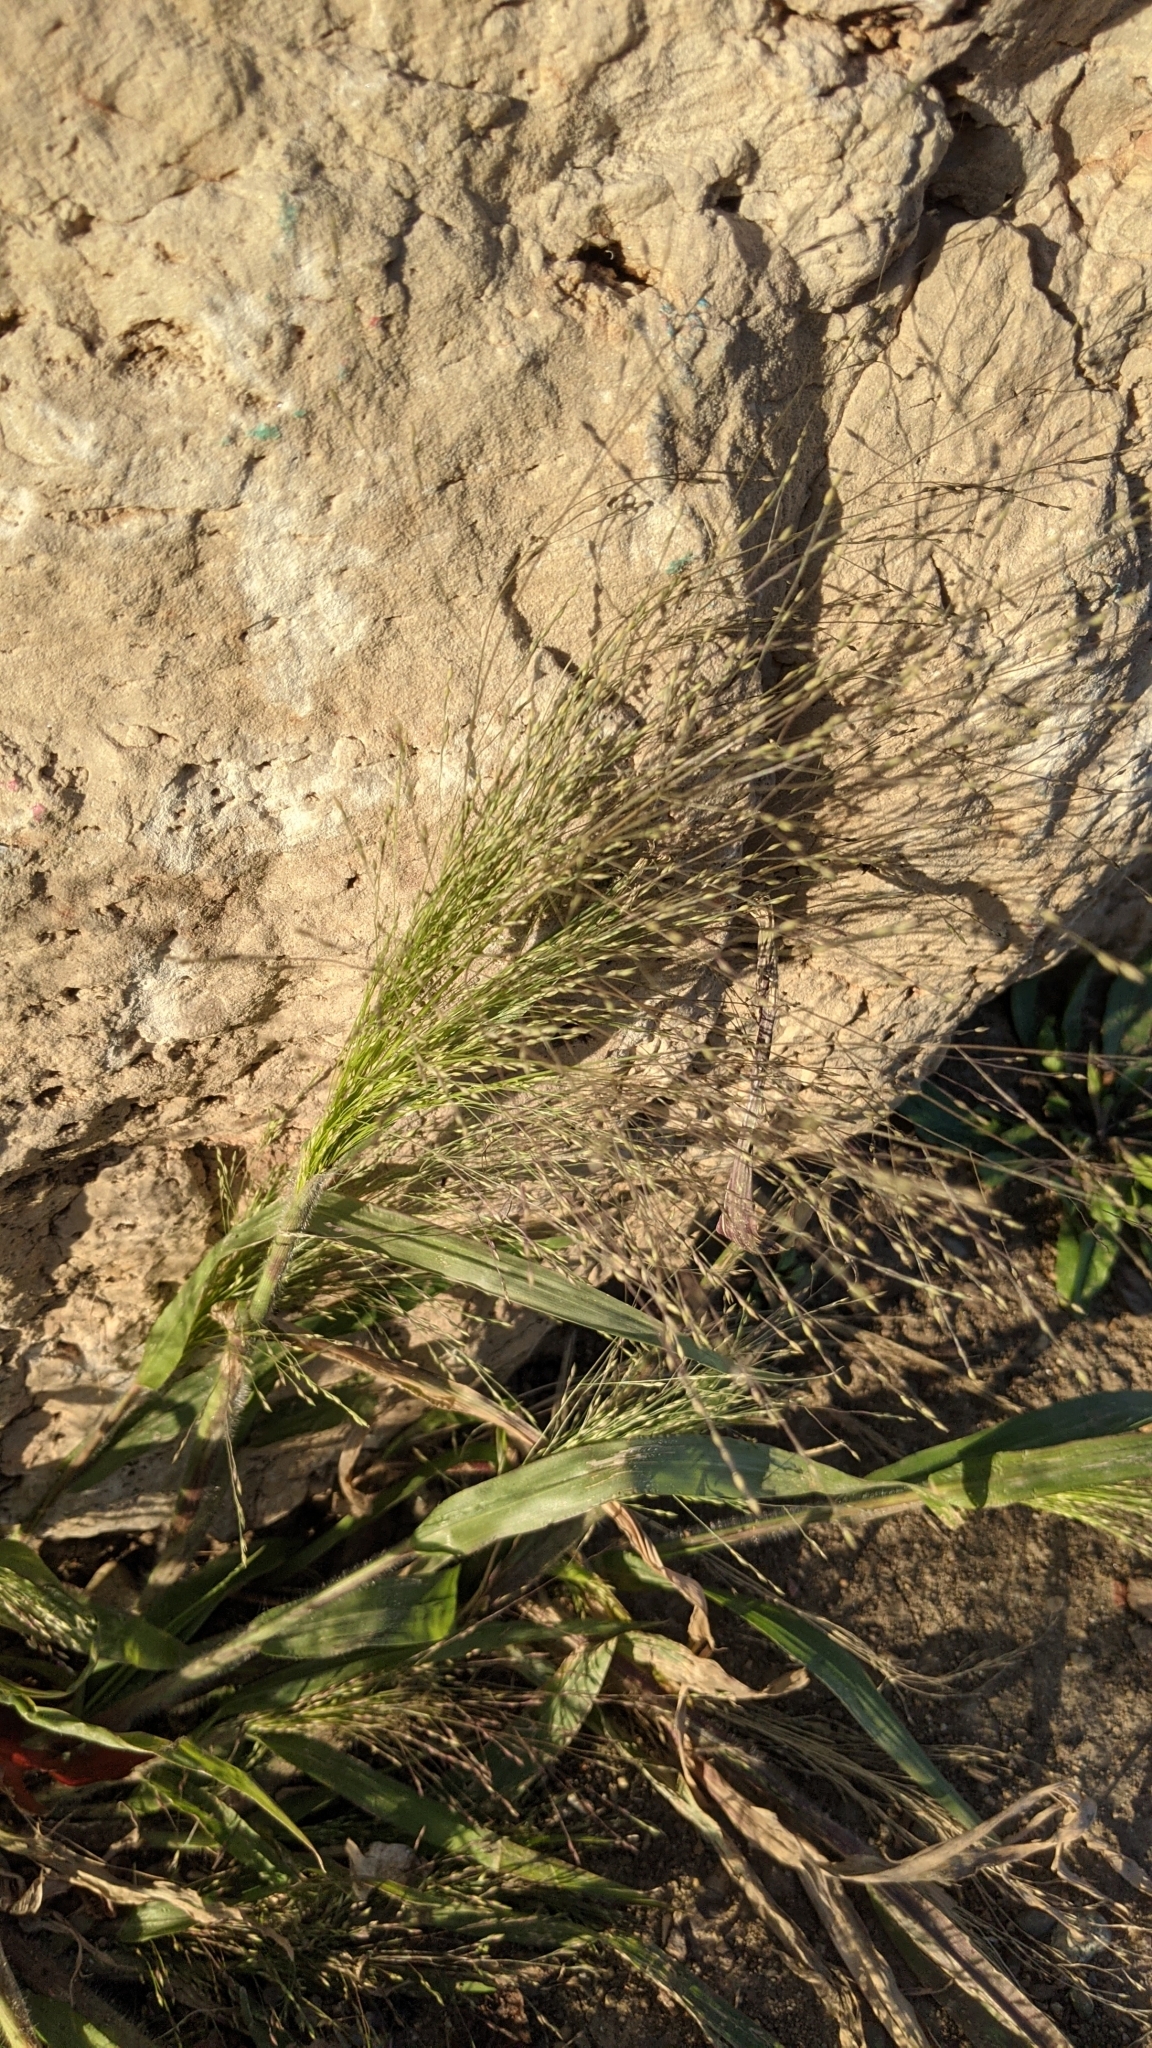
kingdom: Plantae
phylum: Tracheophyta
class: Liliopsida
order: Poales
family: Poaceae
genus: Panicum
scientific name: Panicum capillare
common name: Witch-grass
